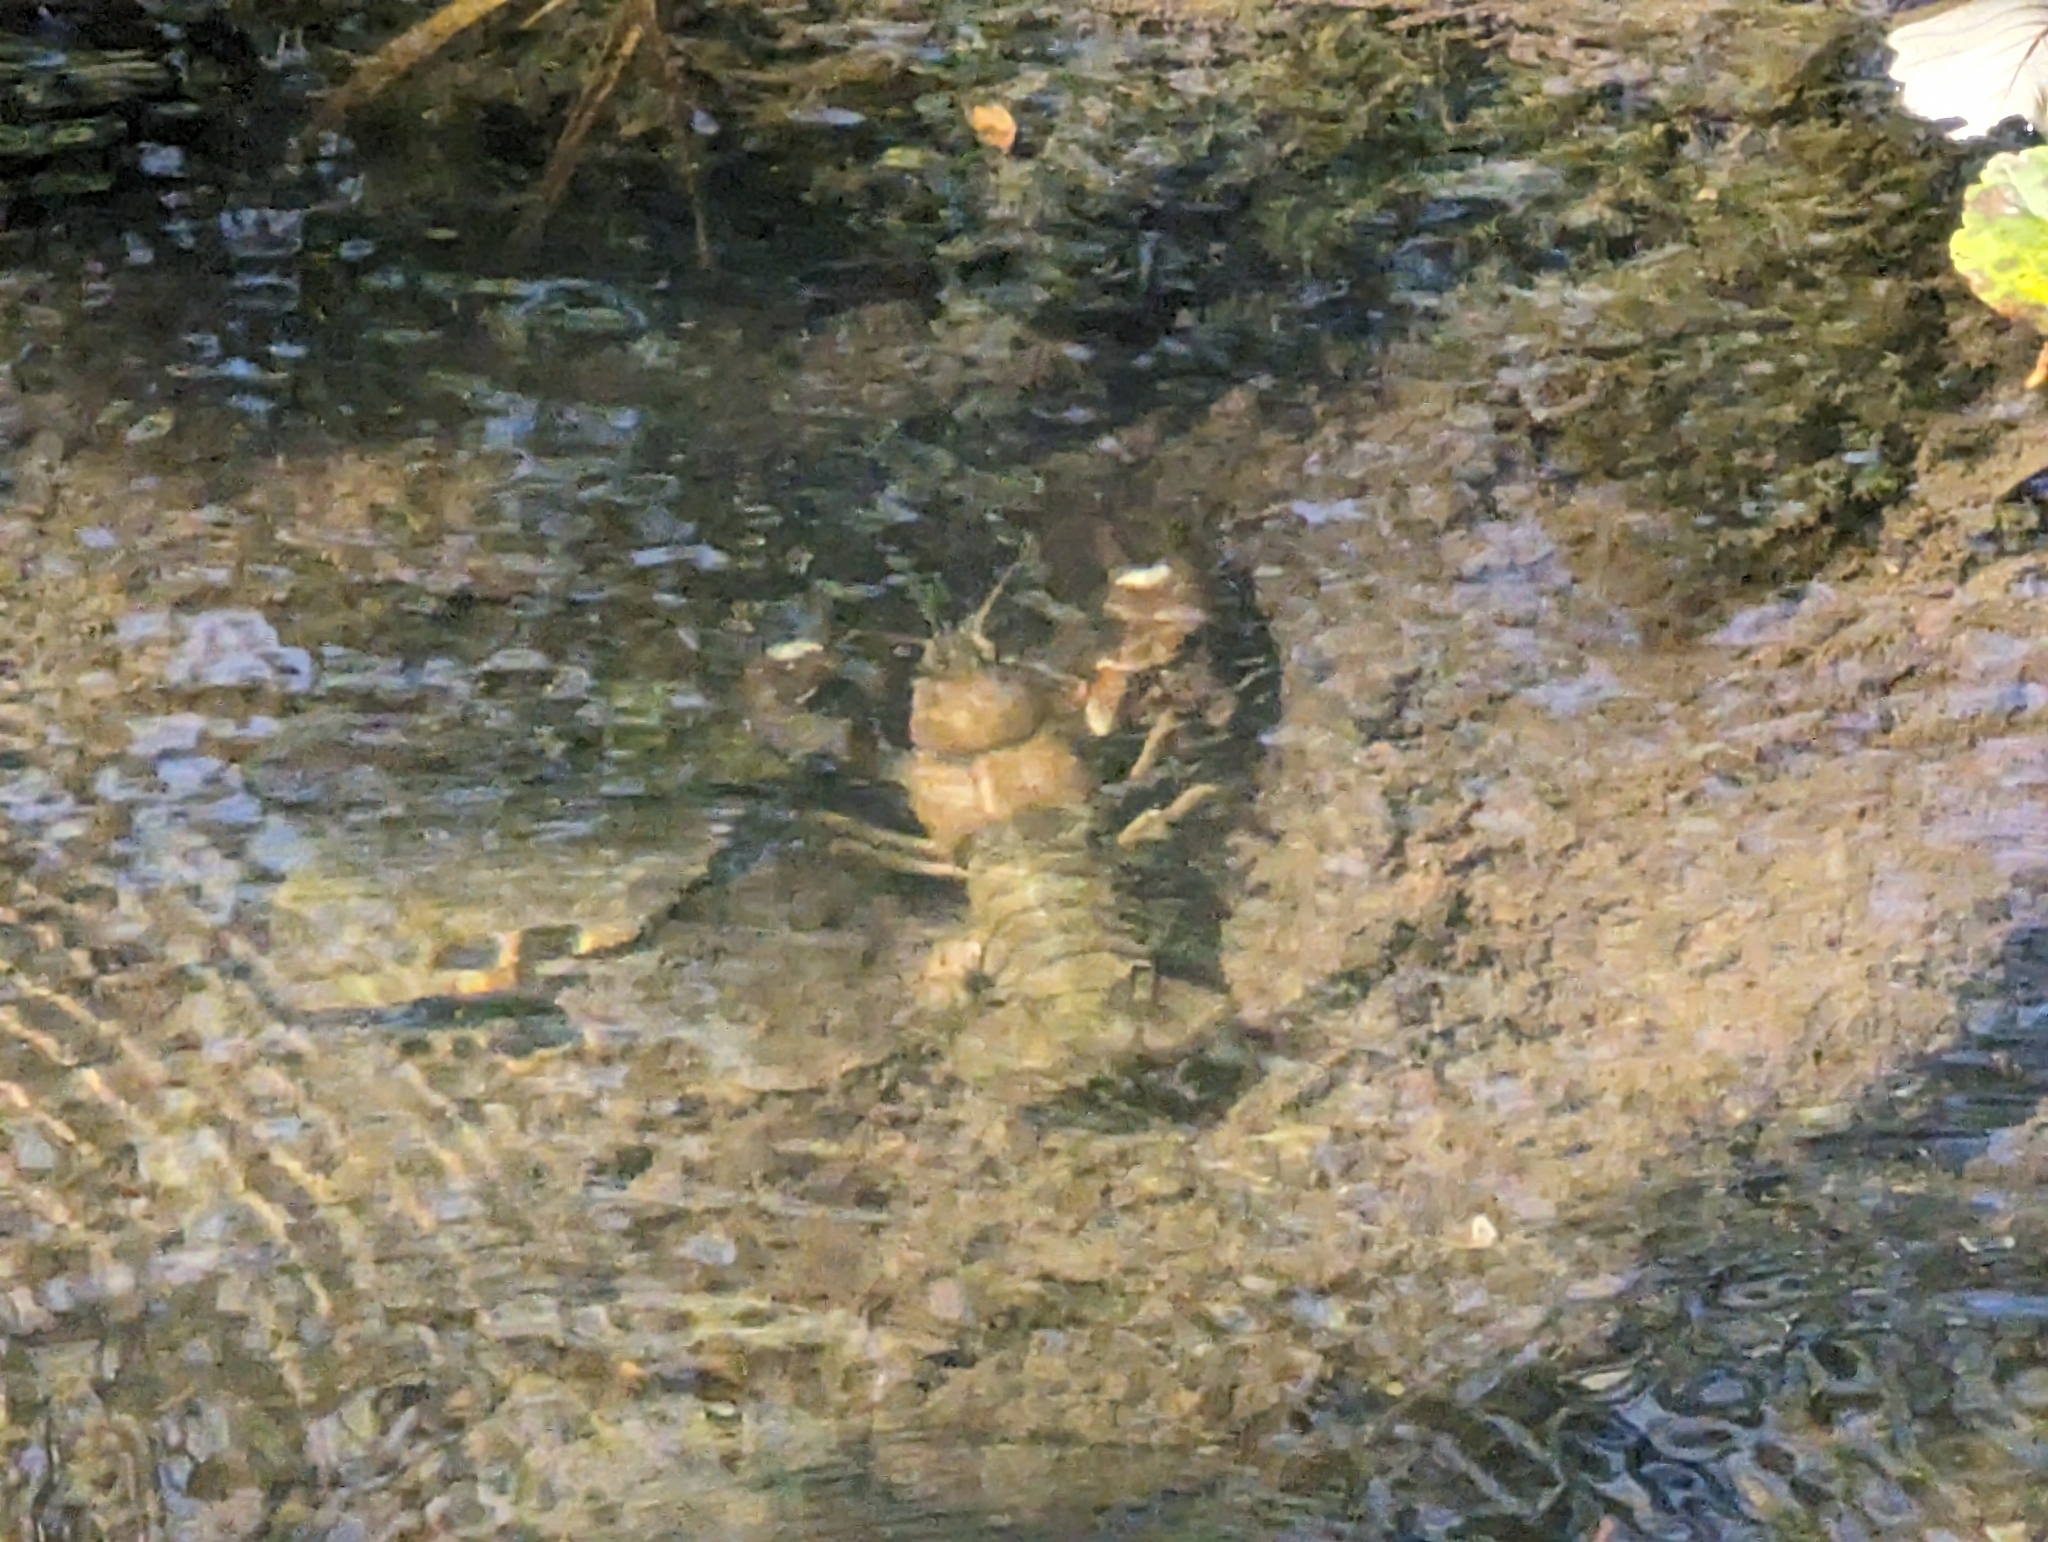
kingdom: Animalia
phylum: Arthropoda
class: Malacostraca
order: Decapoda
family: Astacidae
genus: Pacifastacus
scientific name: Pacifastacus leniusculus
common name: Signal crayfish
